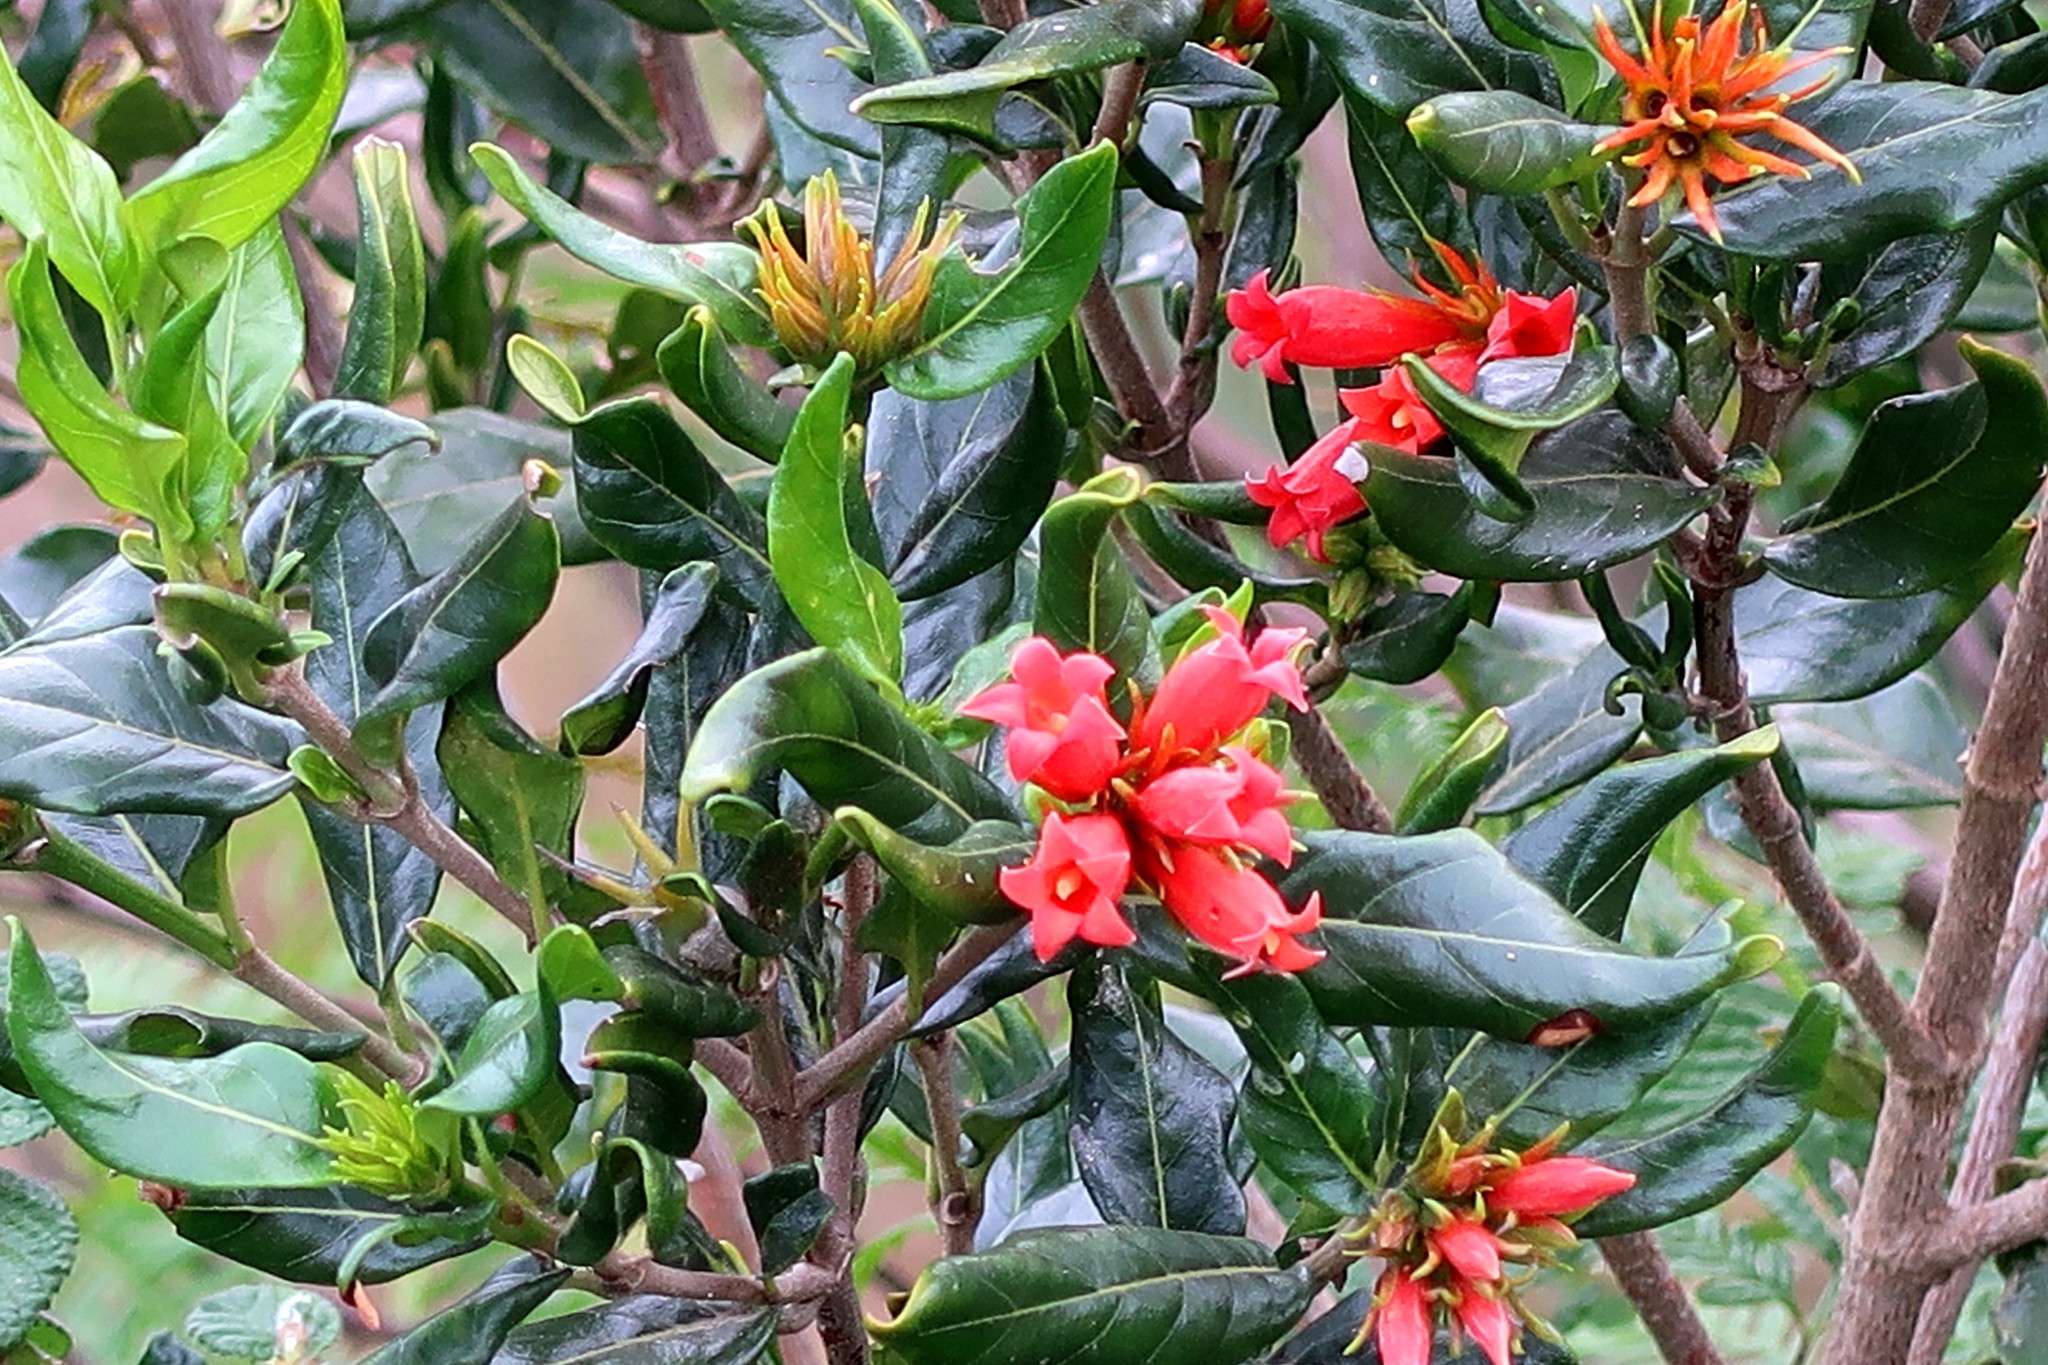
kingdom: Plantae
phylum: Tracheophyta
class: Magnoliopsida
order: Gentianales
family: Rubiaceae
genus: Burchellia
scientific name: Burchellia bubalina
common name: Wild pomegranate
